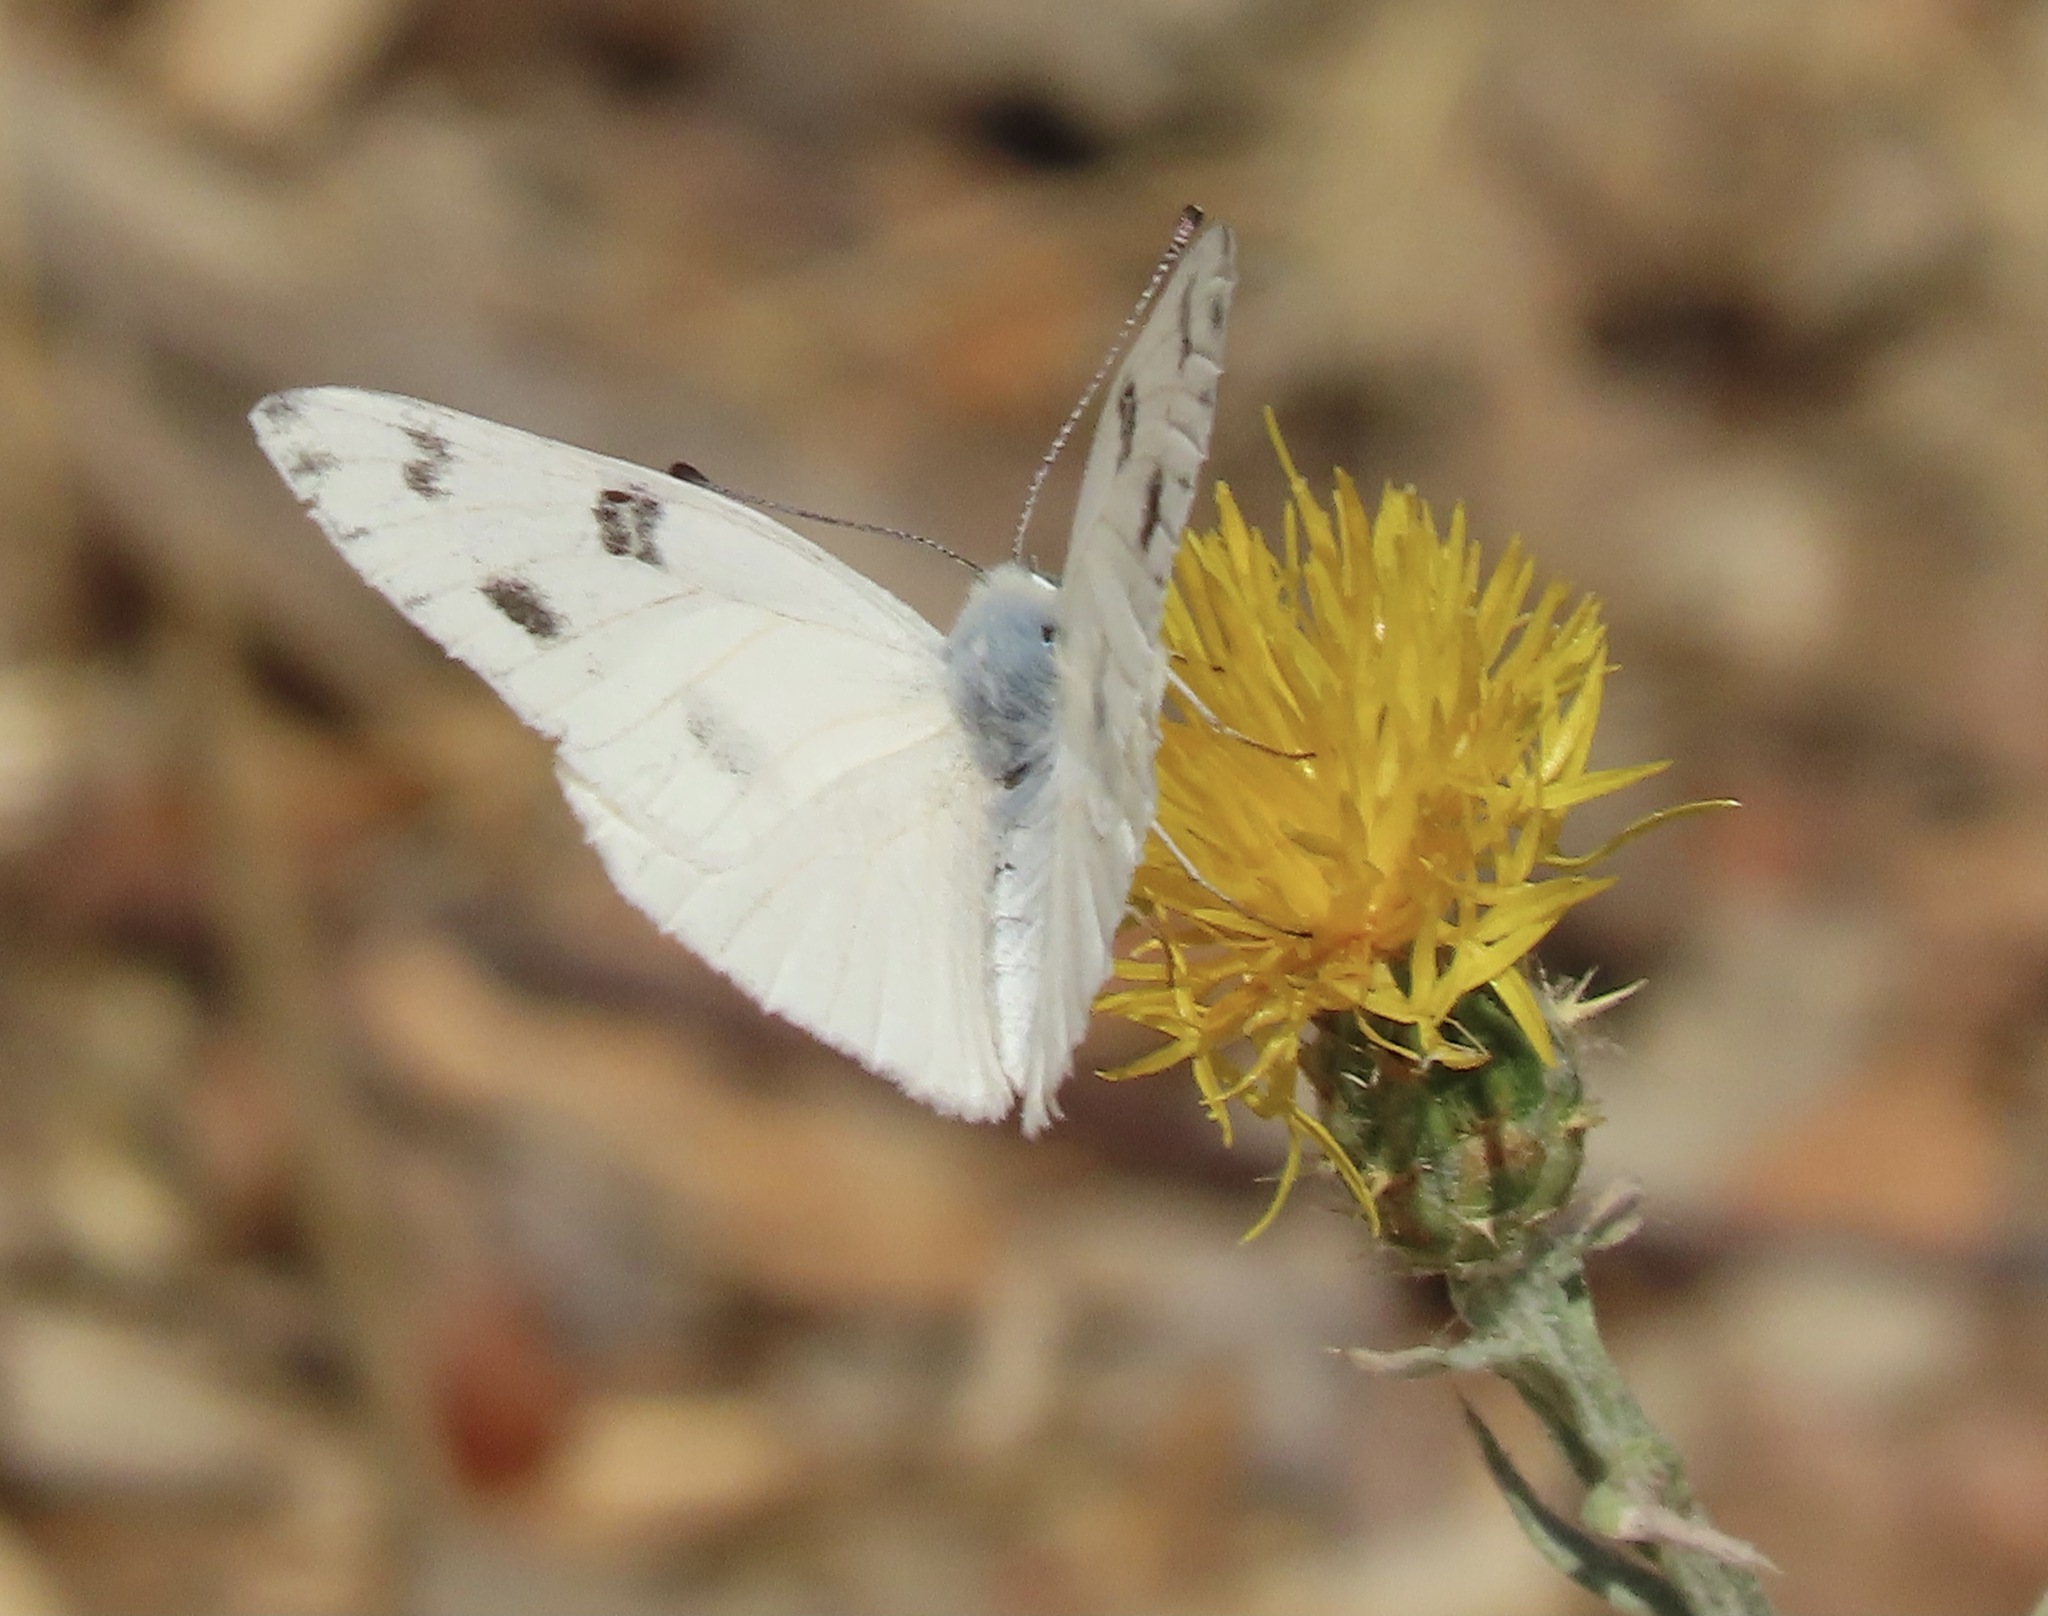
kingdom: Animalia
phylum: Arthropoda
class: Insecta
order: Lepidoptera
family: Pieridae
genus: Pontia
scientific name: Pontia protodice
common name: Checkered white
